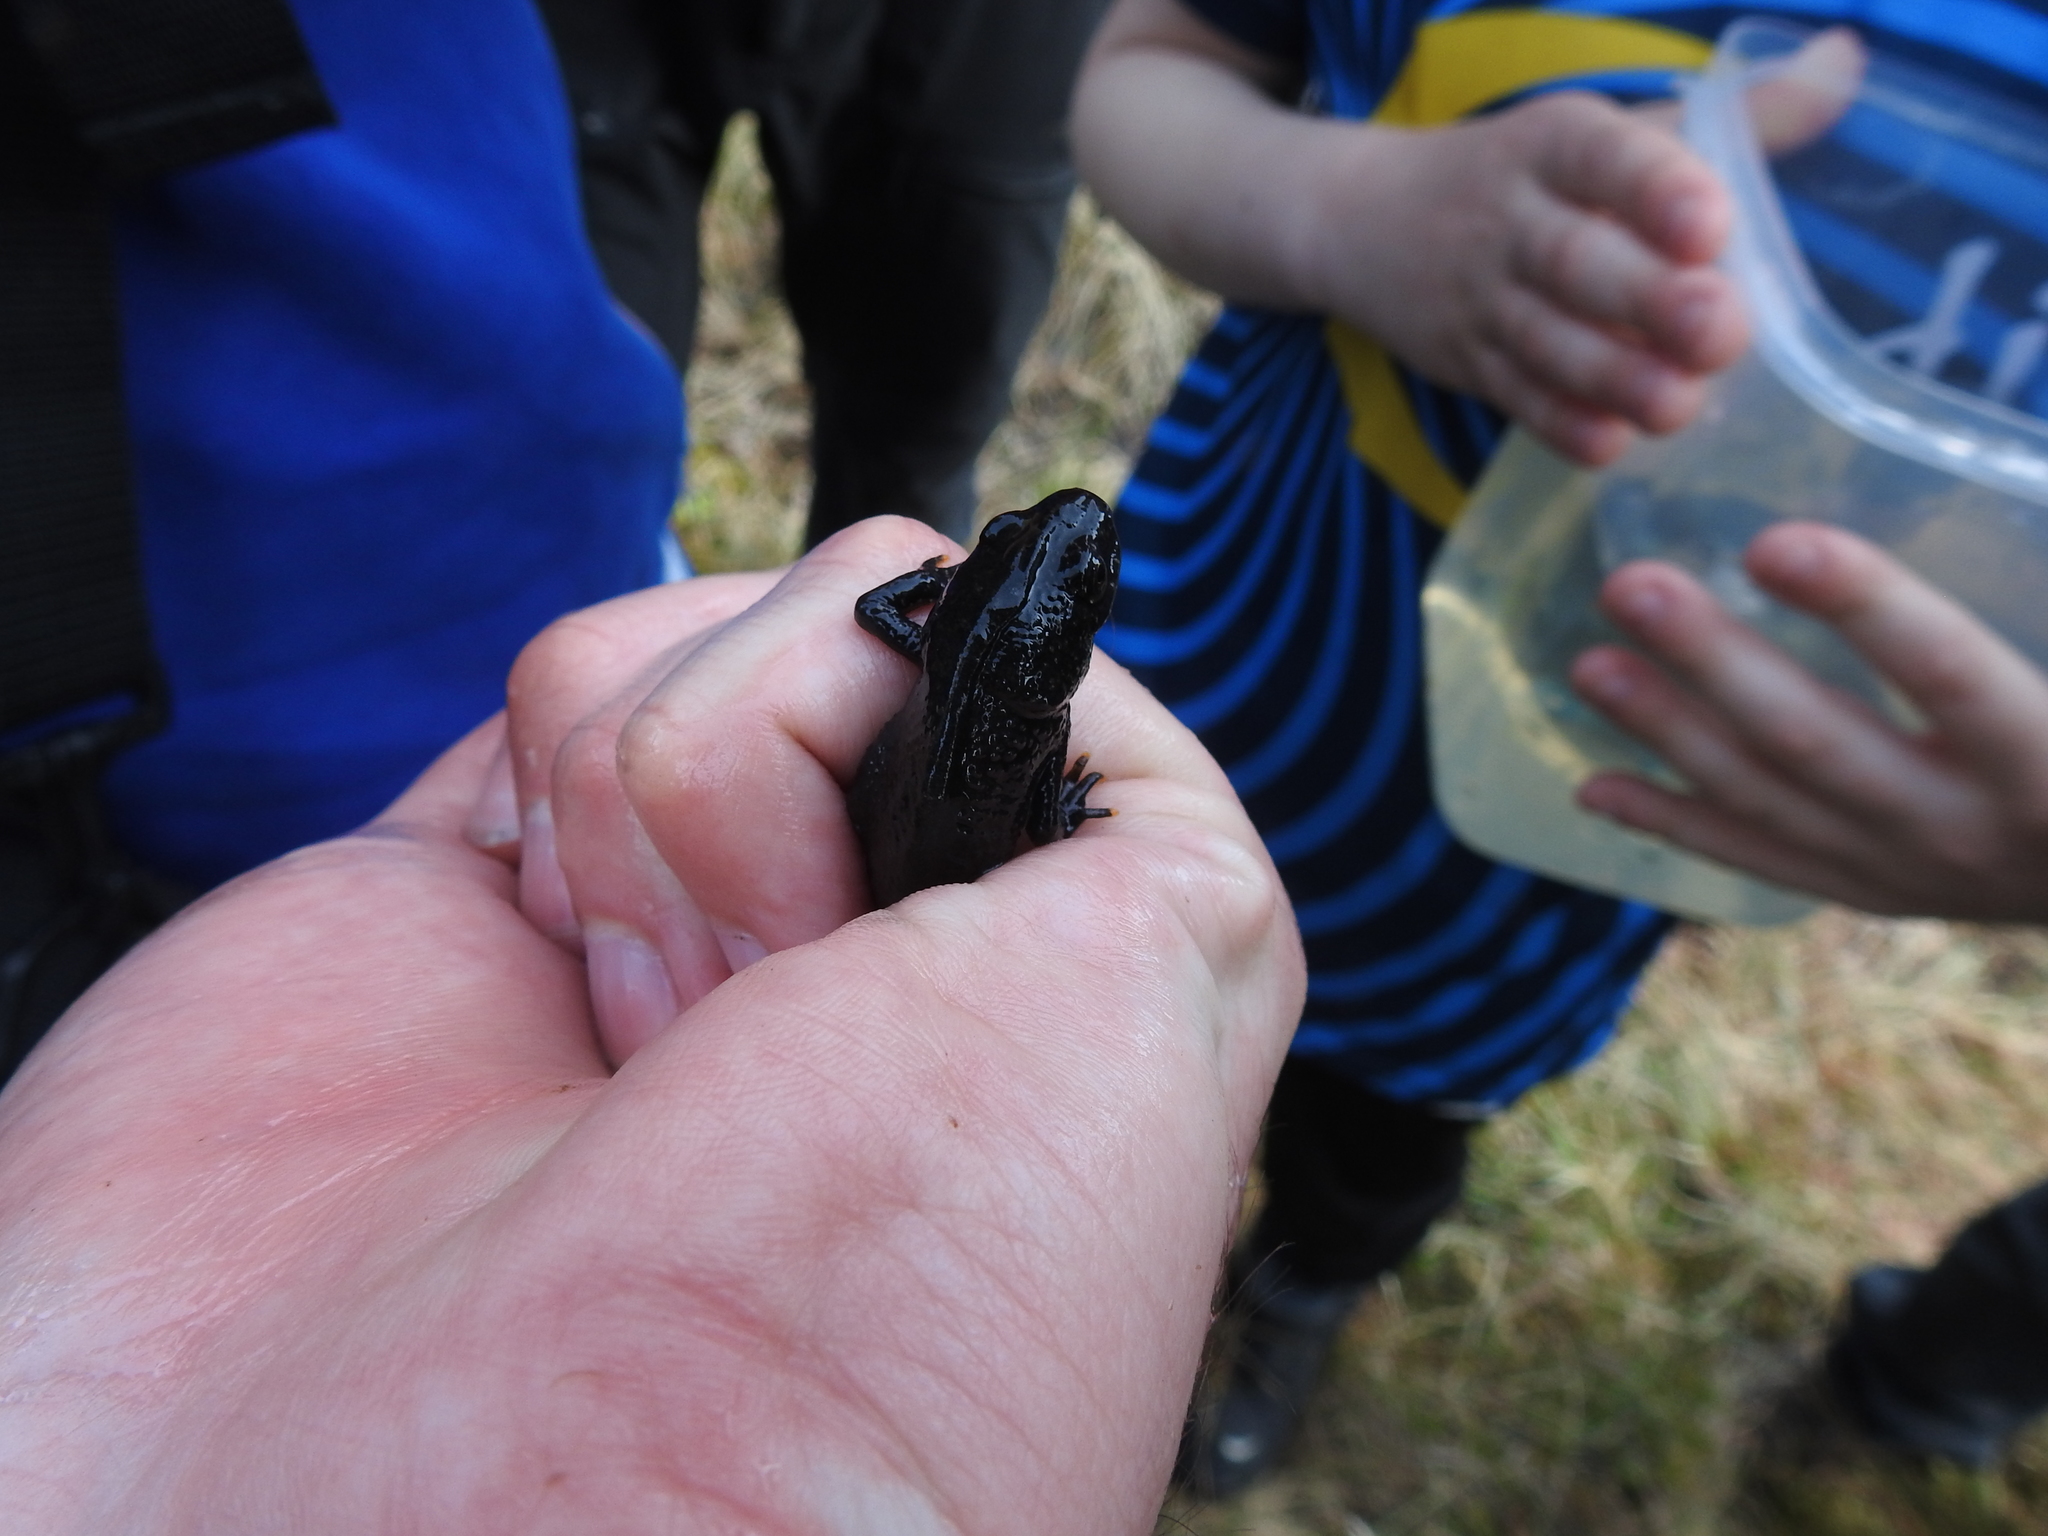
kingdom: Animalia
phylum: Chordata
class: Amphibia
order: Caudata
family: Salamandridae
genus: Triturus
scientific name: Triturus cristatus
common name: Crested newt
